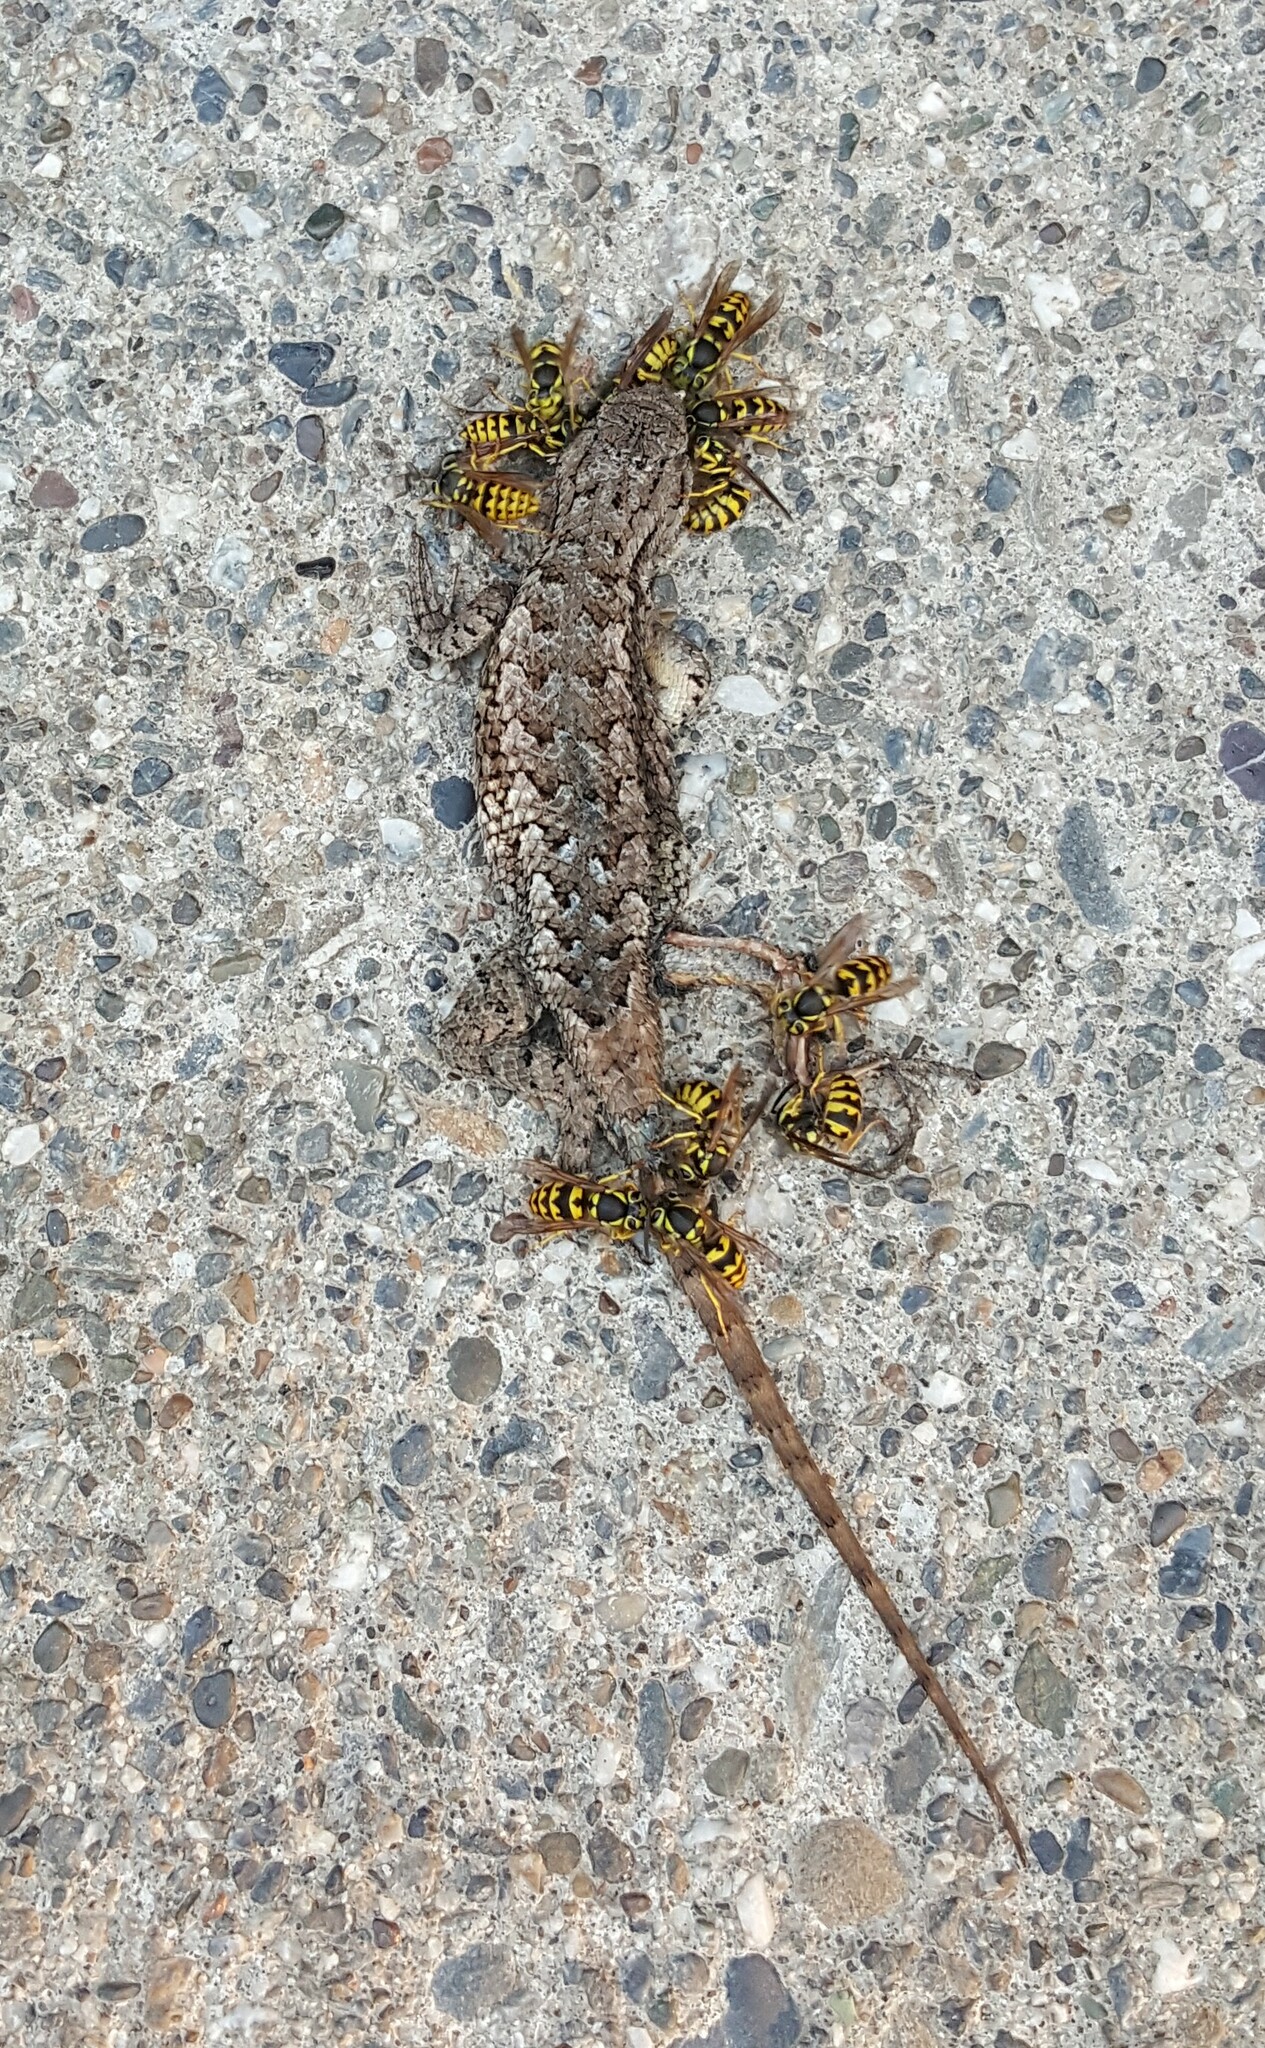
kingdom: Animalia
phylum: Chordata
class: Squamata
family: Phrynosomatidae
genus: Sceloporus
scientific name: Sceloporus occidentalis
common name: Western fence lizard
